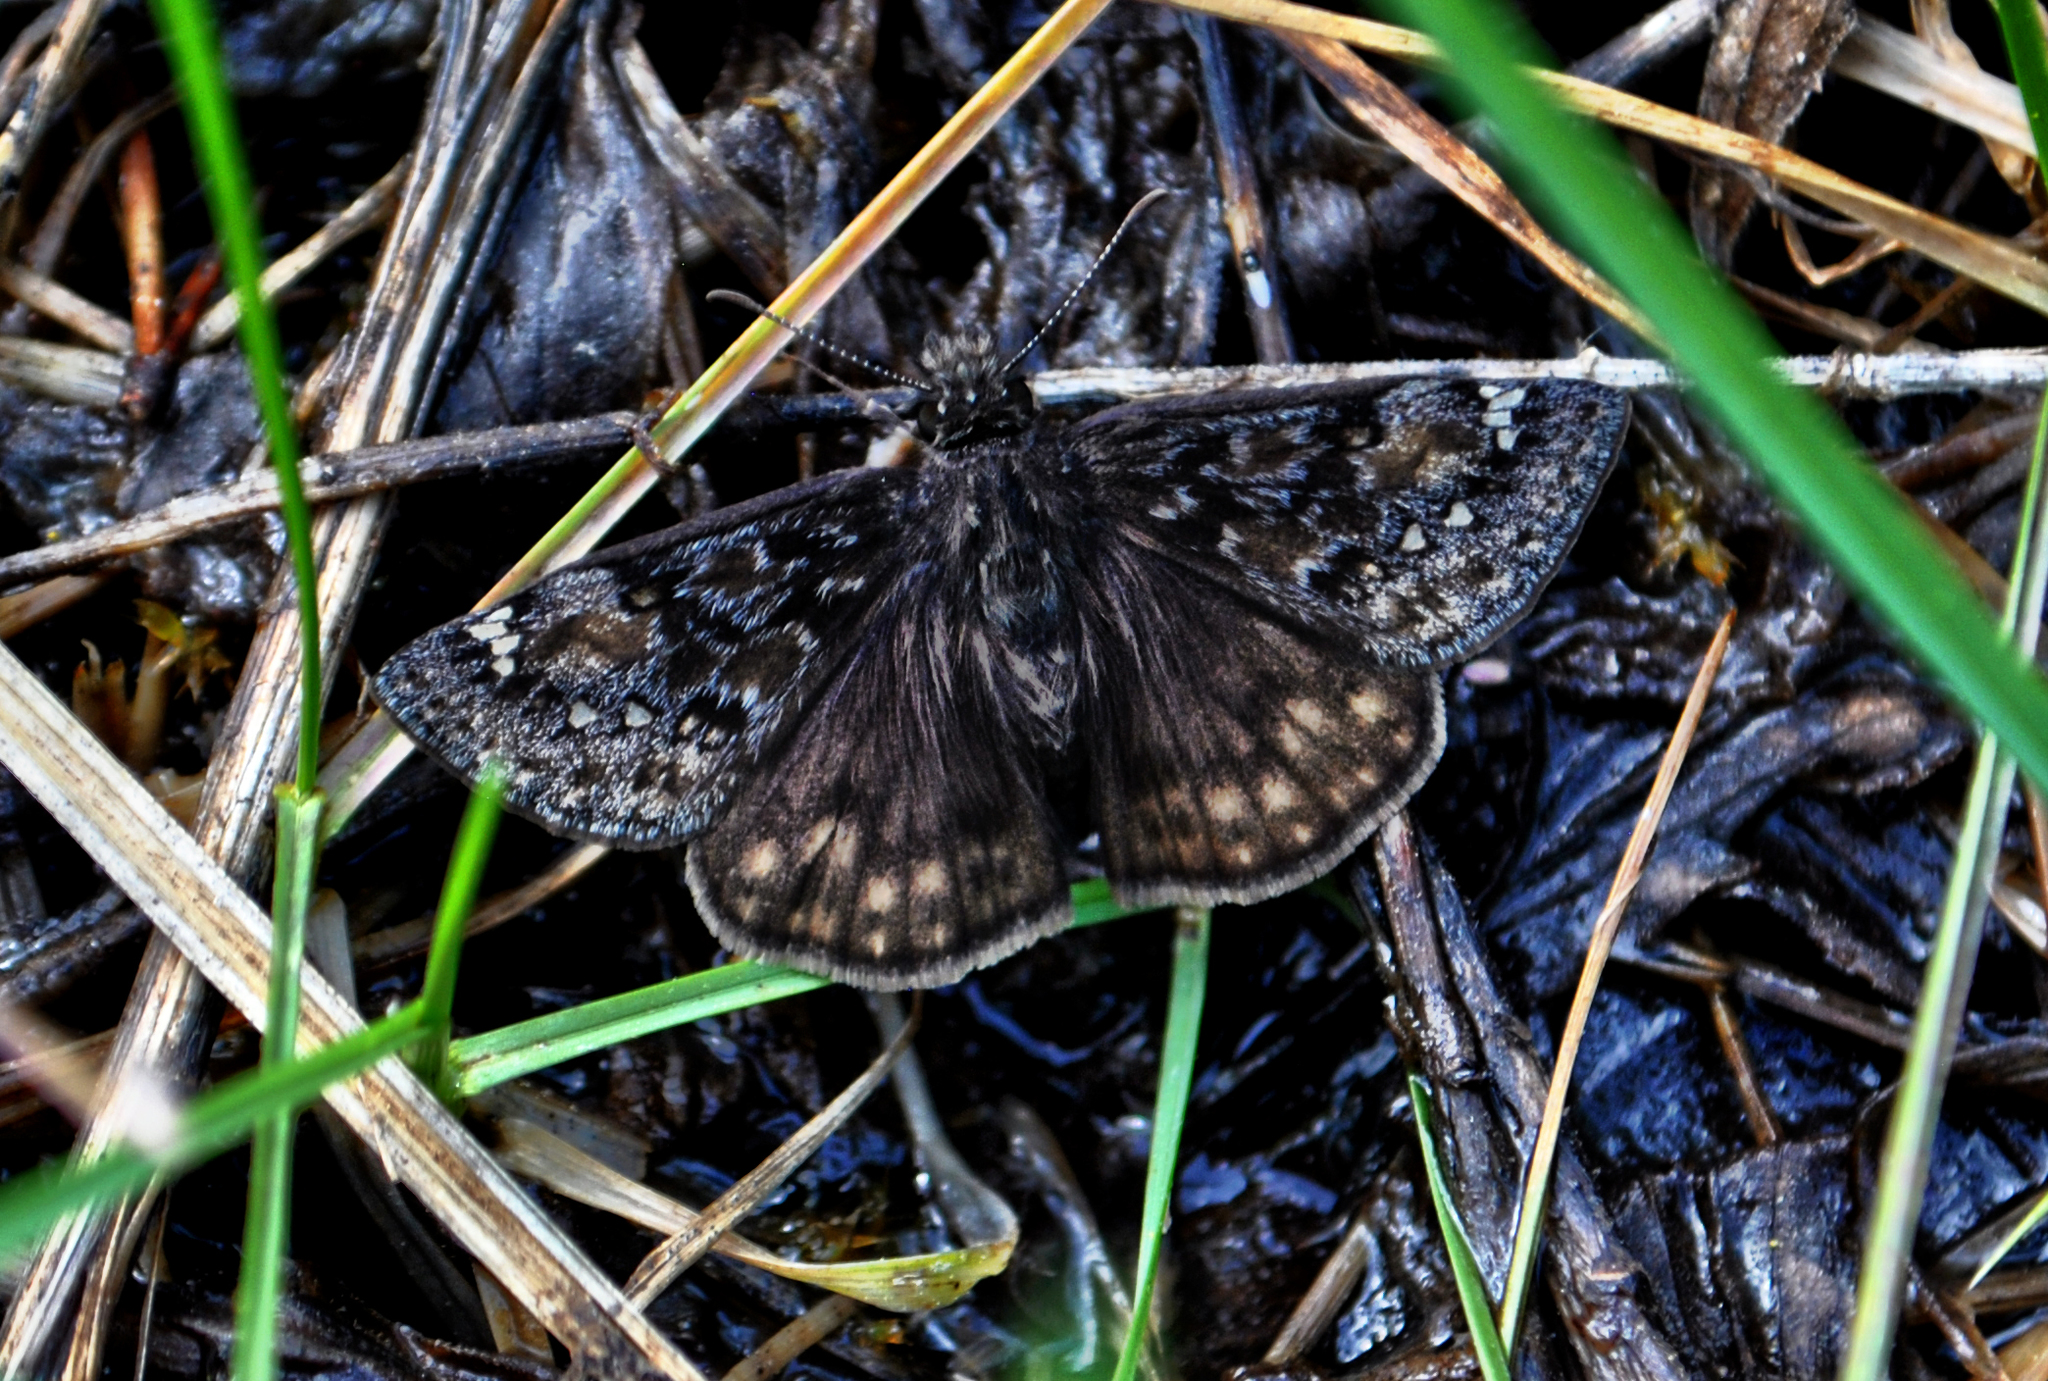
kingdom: Animalia
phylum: Arthropoda
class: Insecta
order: Lepidoptera
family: Hesperiidae
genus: Erynnis
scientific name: Erynnis juvenalis
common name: Juvenal's duskywing
